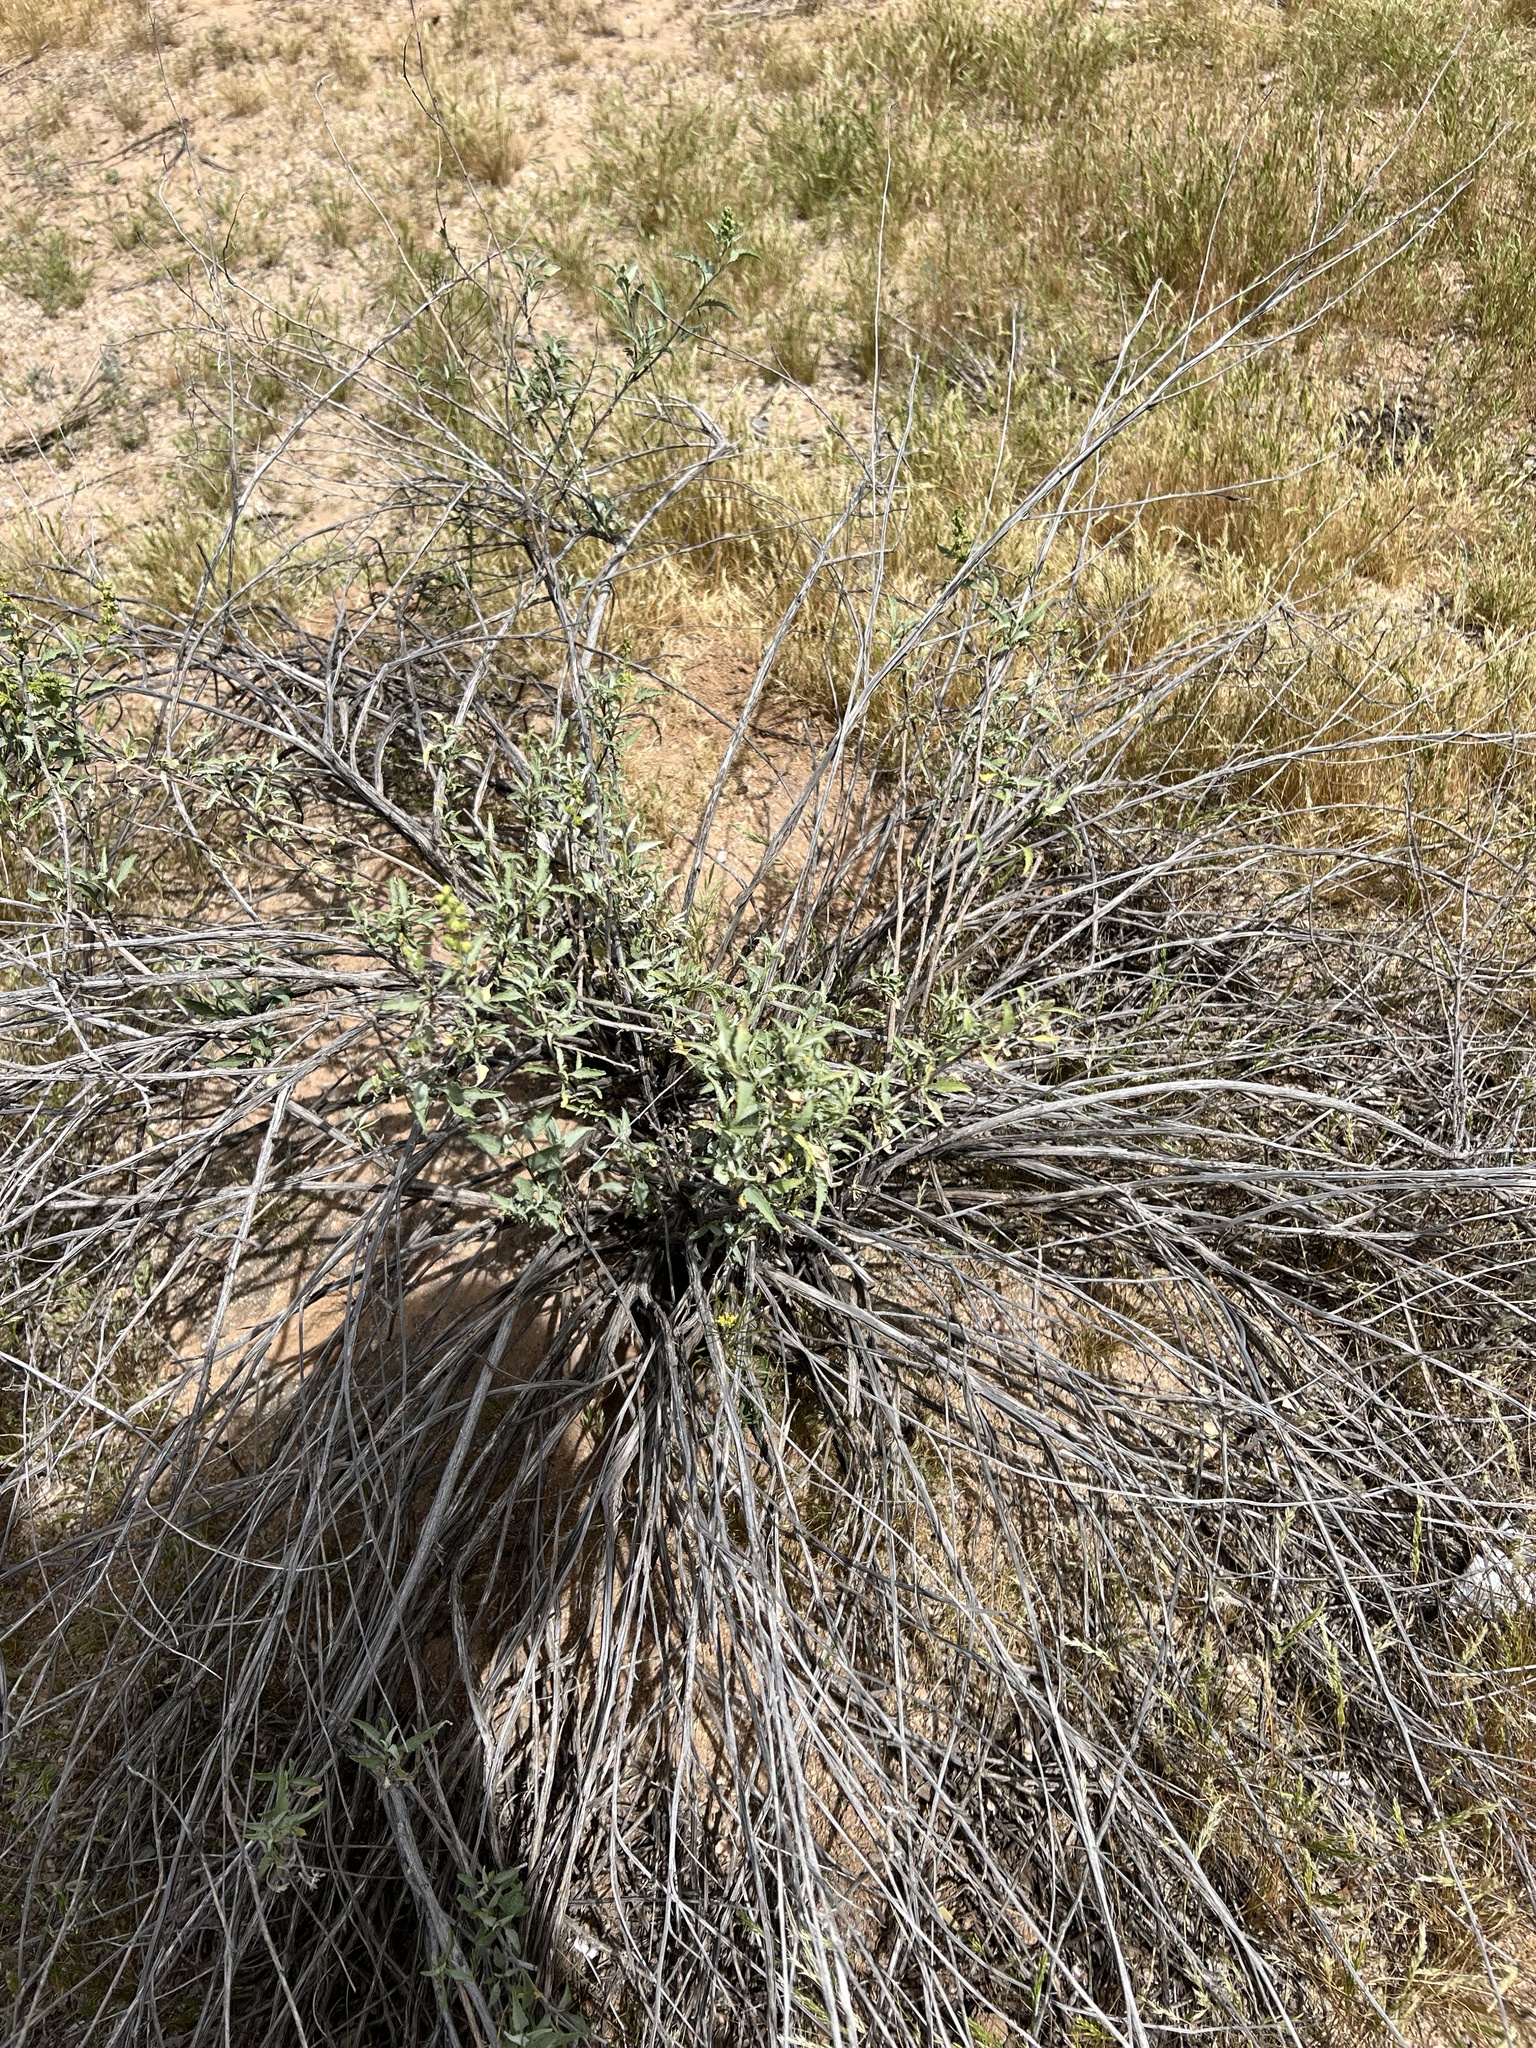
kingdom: Plantae
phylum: Tracheophyta
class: Magnoliopsida
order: Asterales
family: Asteraceae
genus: Ambrosia
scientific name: Ambrosia deltoidea
